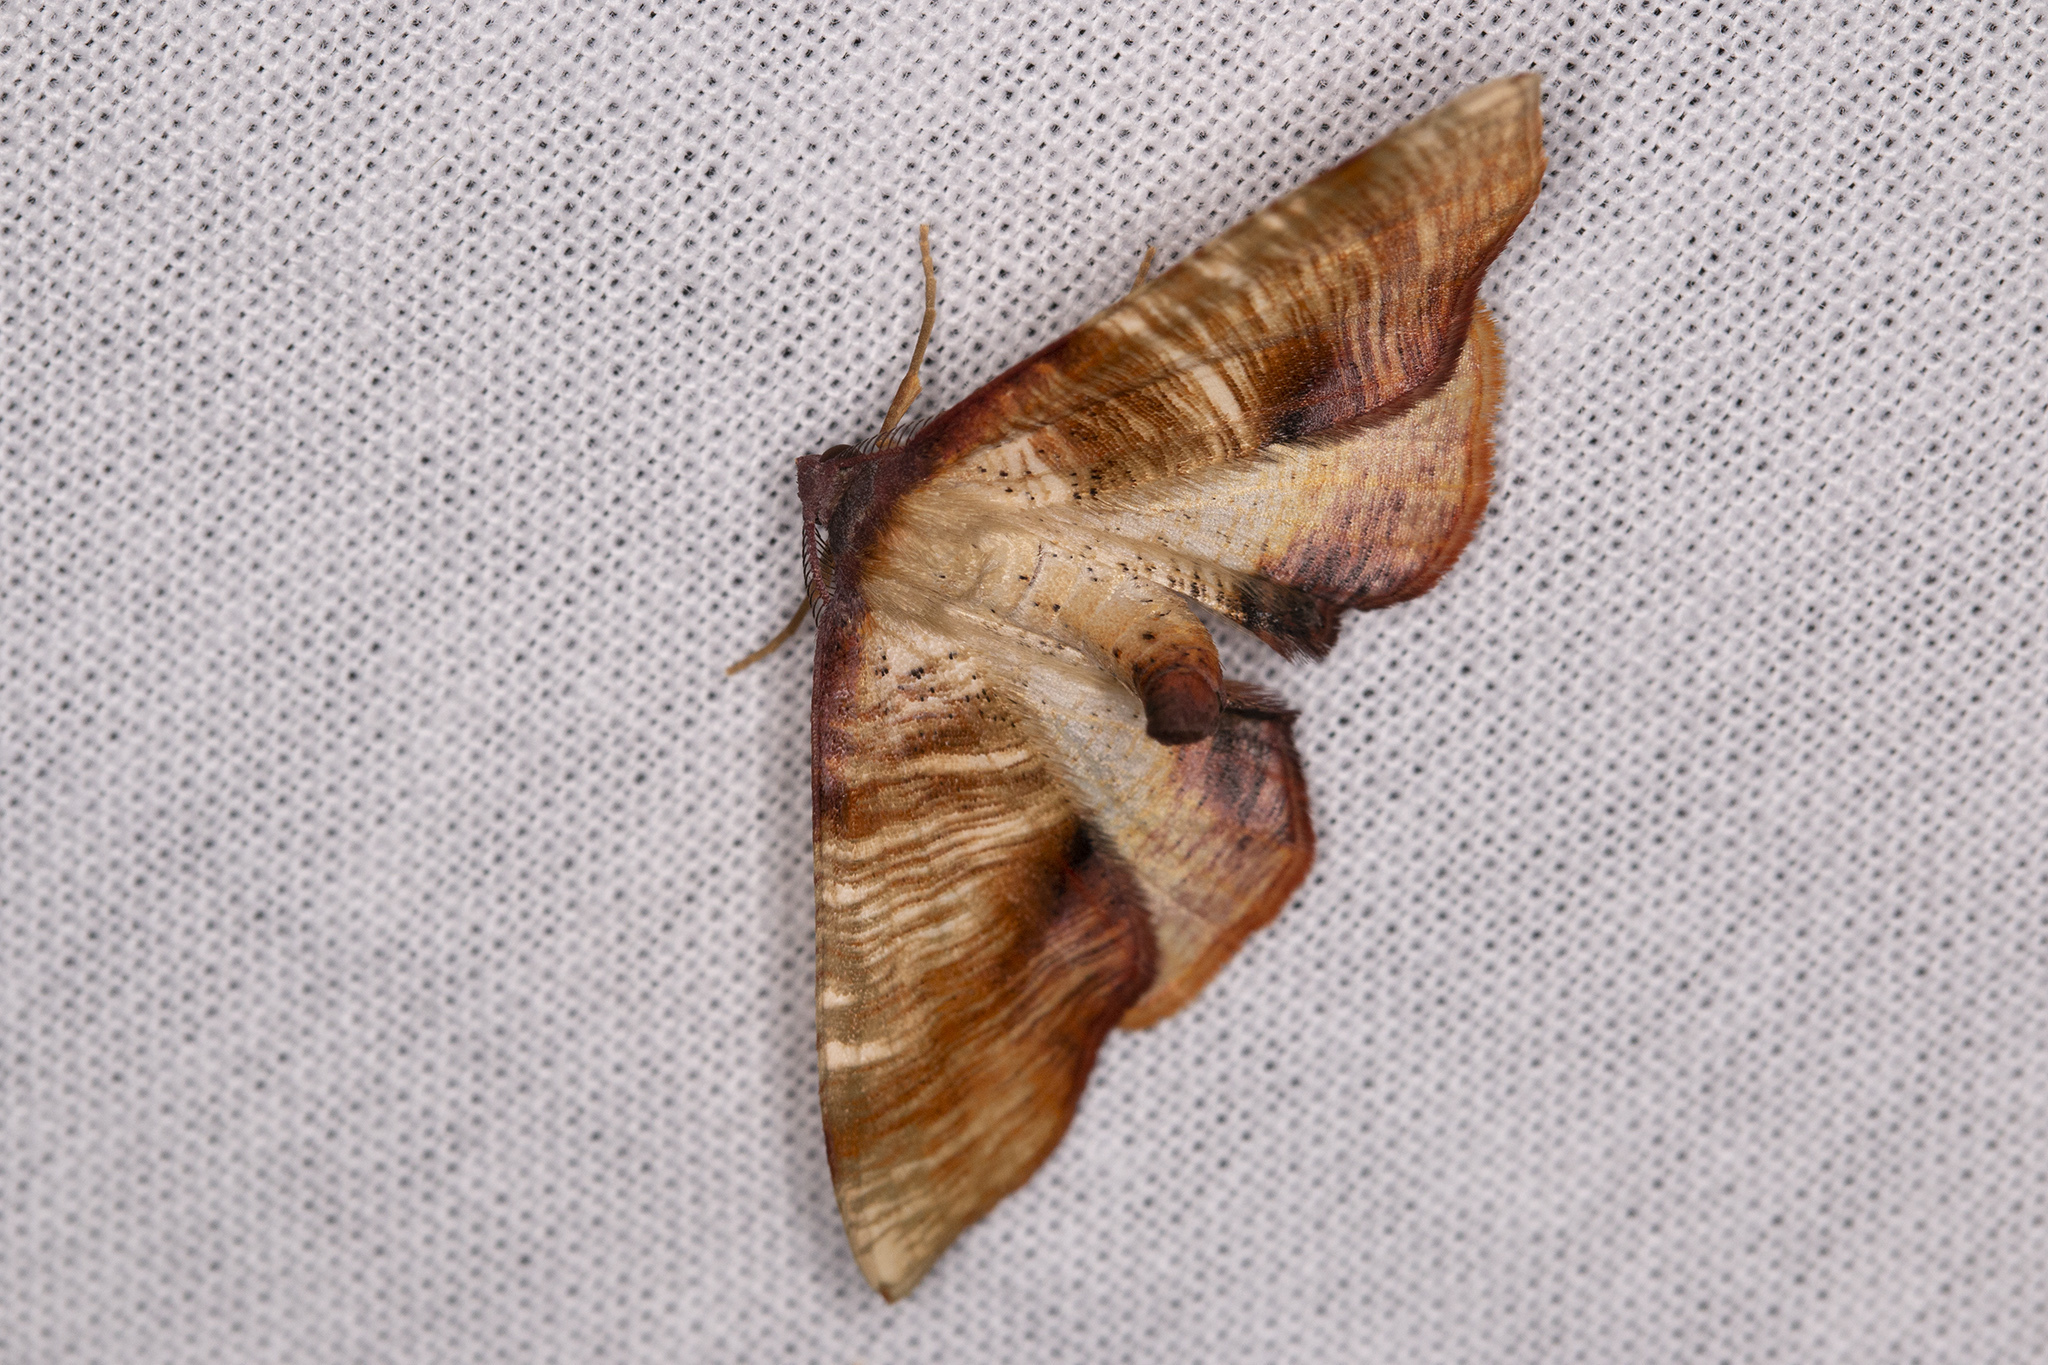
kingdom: Animalia
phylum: Arthropoda
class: Insecta
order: Lepidoptera
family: Geometridae
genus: Plagodis
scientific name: Plagodis dolabraria
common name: Scorched wing
